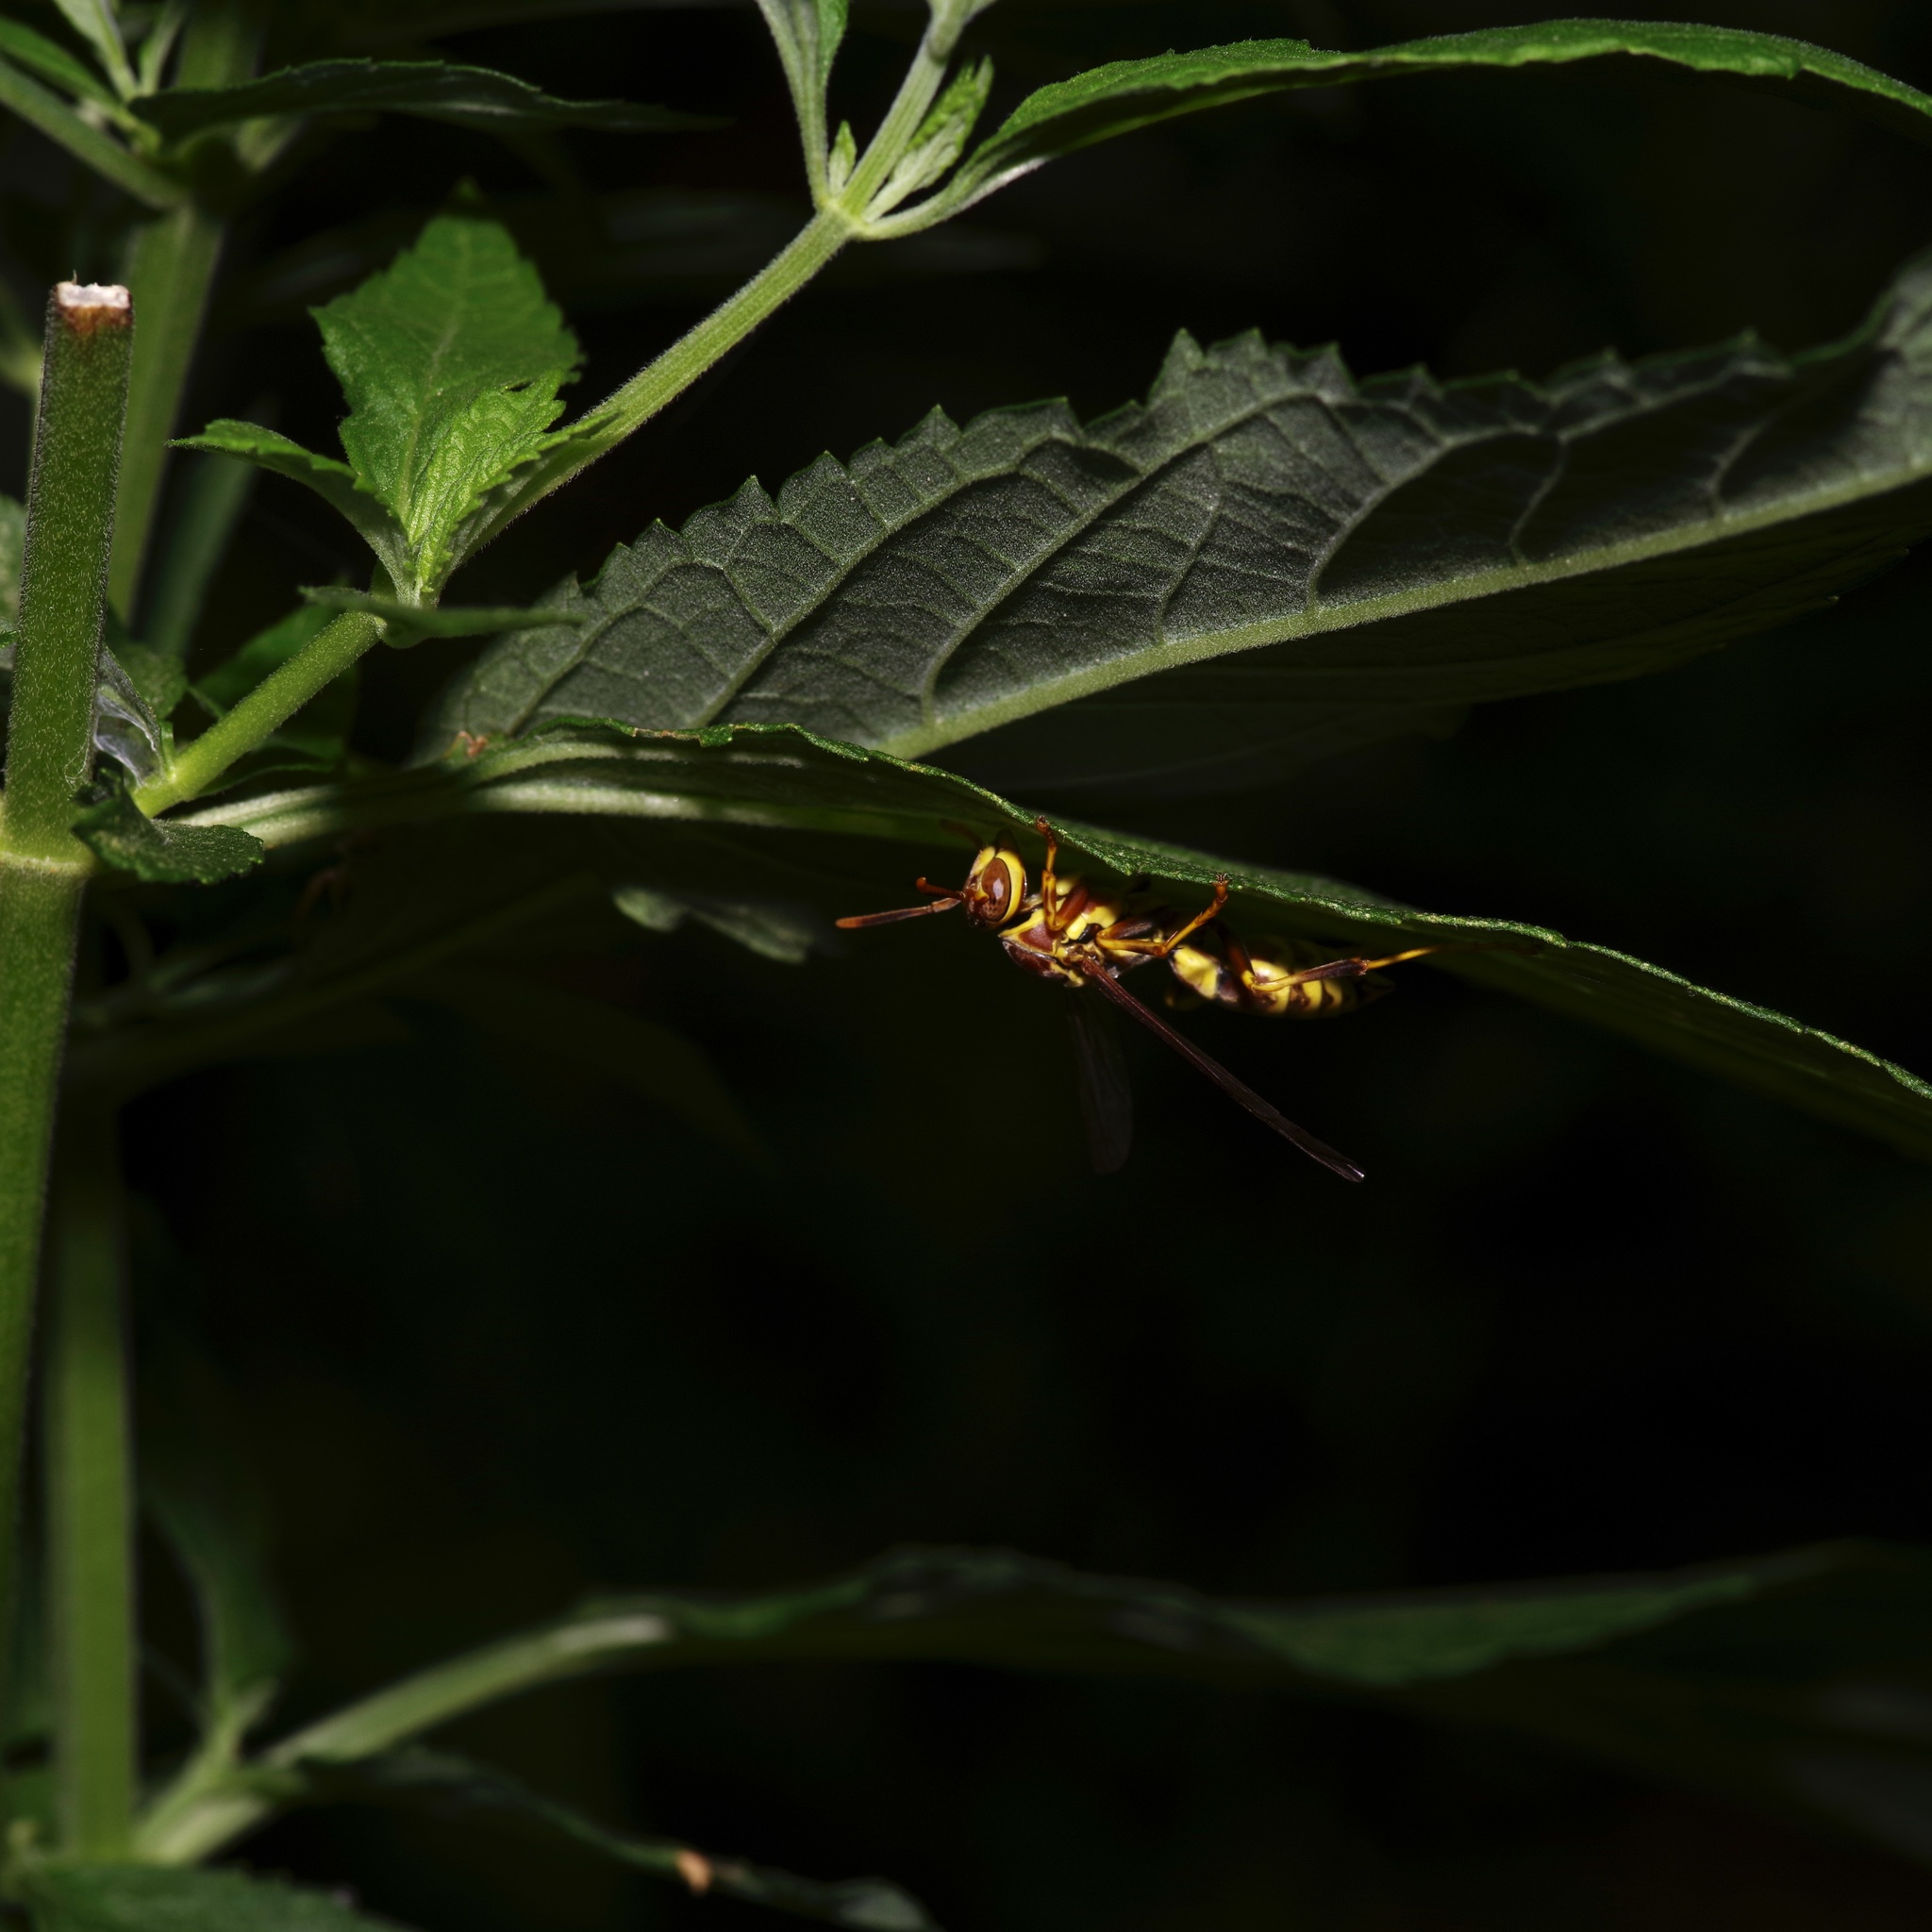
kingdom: Animalia
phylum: Arthropoda
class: Insecta
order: Hymenoptera
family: Eumenidae
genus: Polistes
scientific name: Polistes exclamans
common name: Paper wasp
